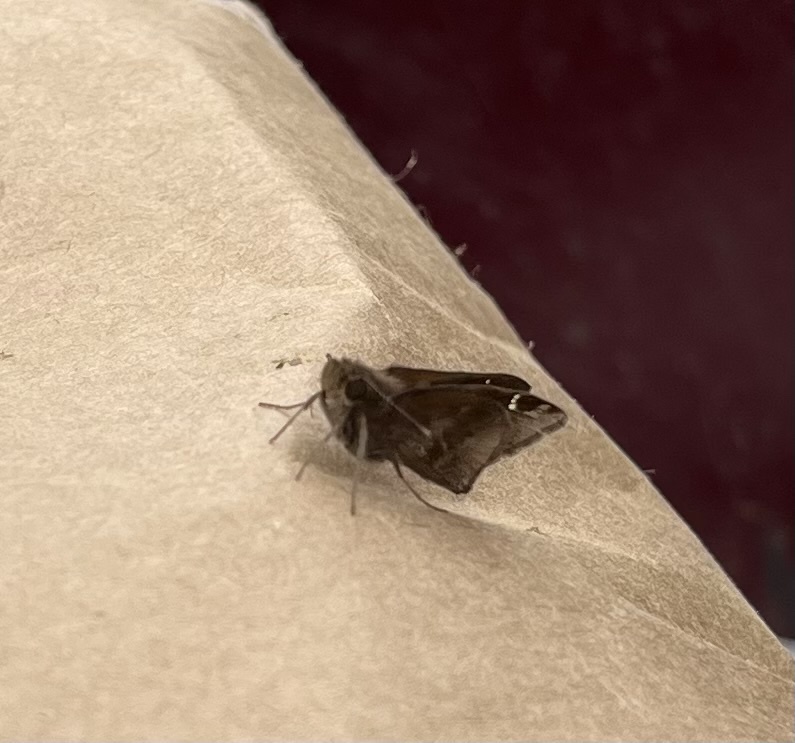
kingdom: Animalia
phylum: Arthropoda
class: Insecta
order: Lepidoptera
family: Hesperiidae
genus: Lerema
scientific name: Lerema accius
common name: Clouded skipper
